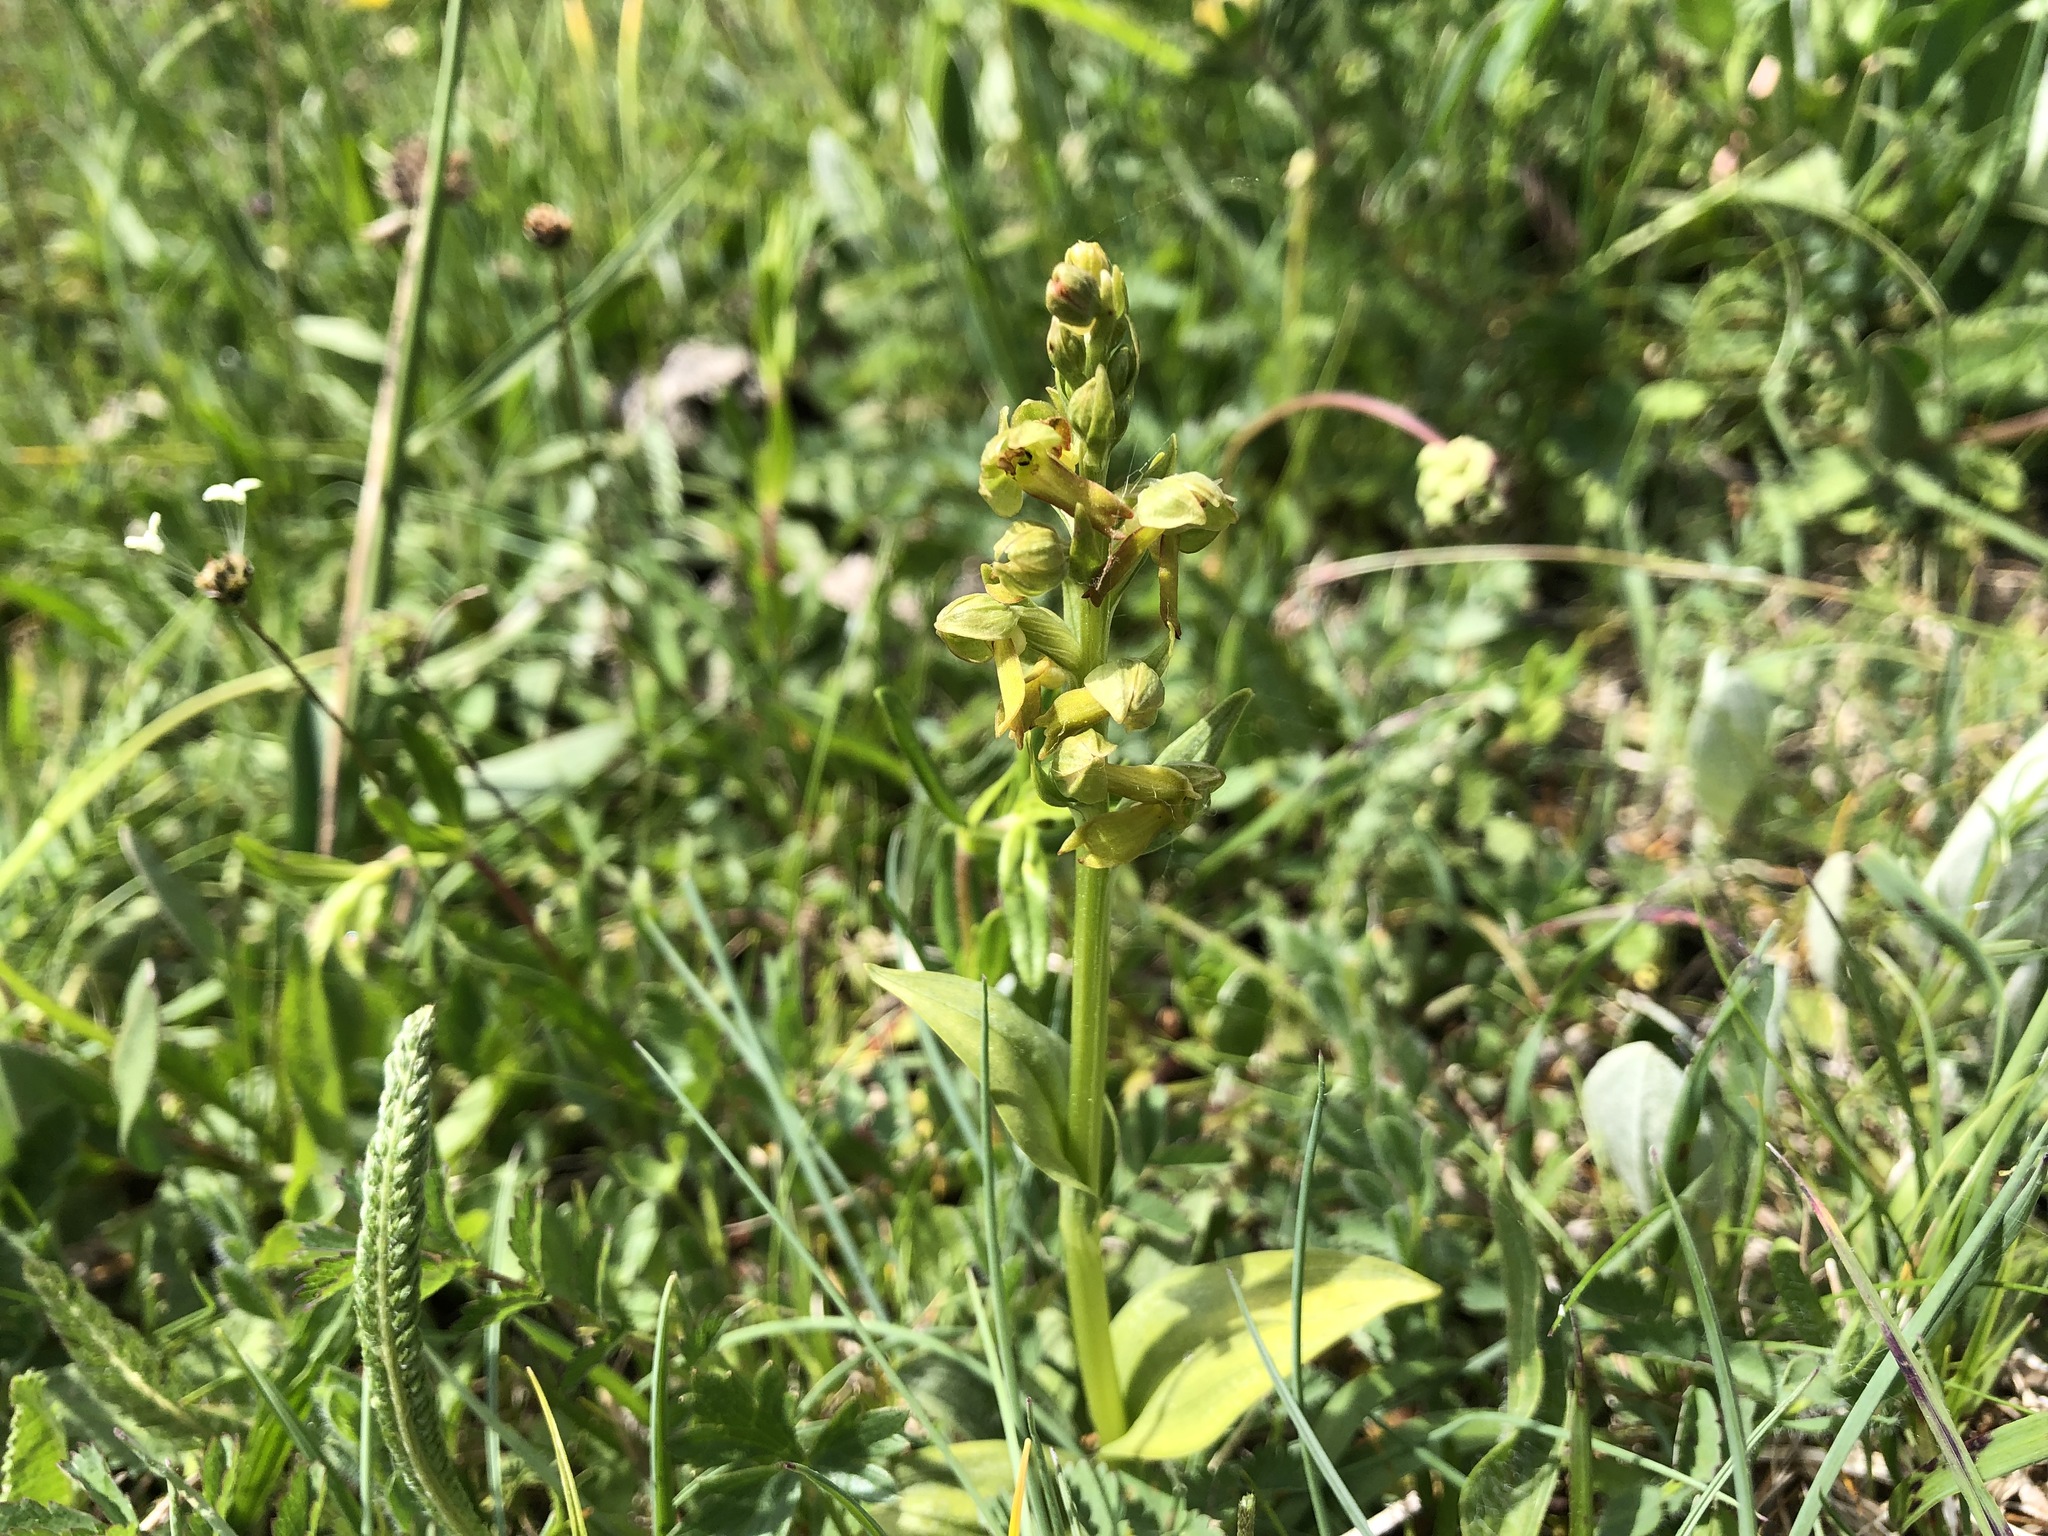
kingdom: Plantae
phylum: Tracheophyta
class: Liliopsida
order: Asparagales
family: Orchidaceae
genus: Dactylorhiza
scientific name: Dactylorhiza viridis
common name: Longbract frog orchid
